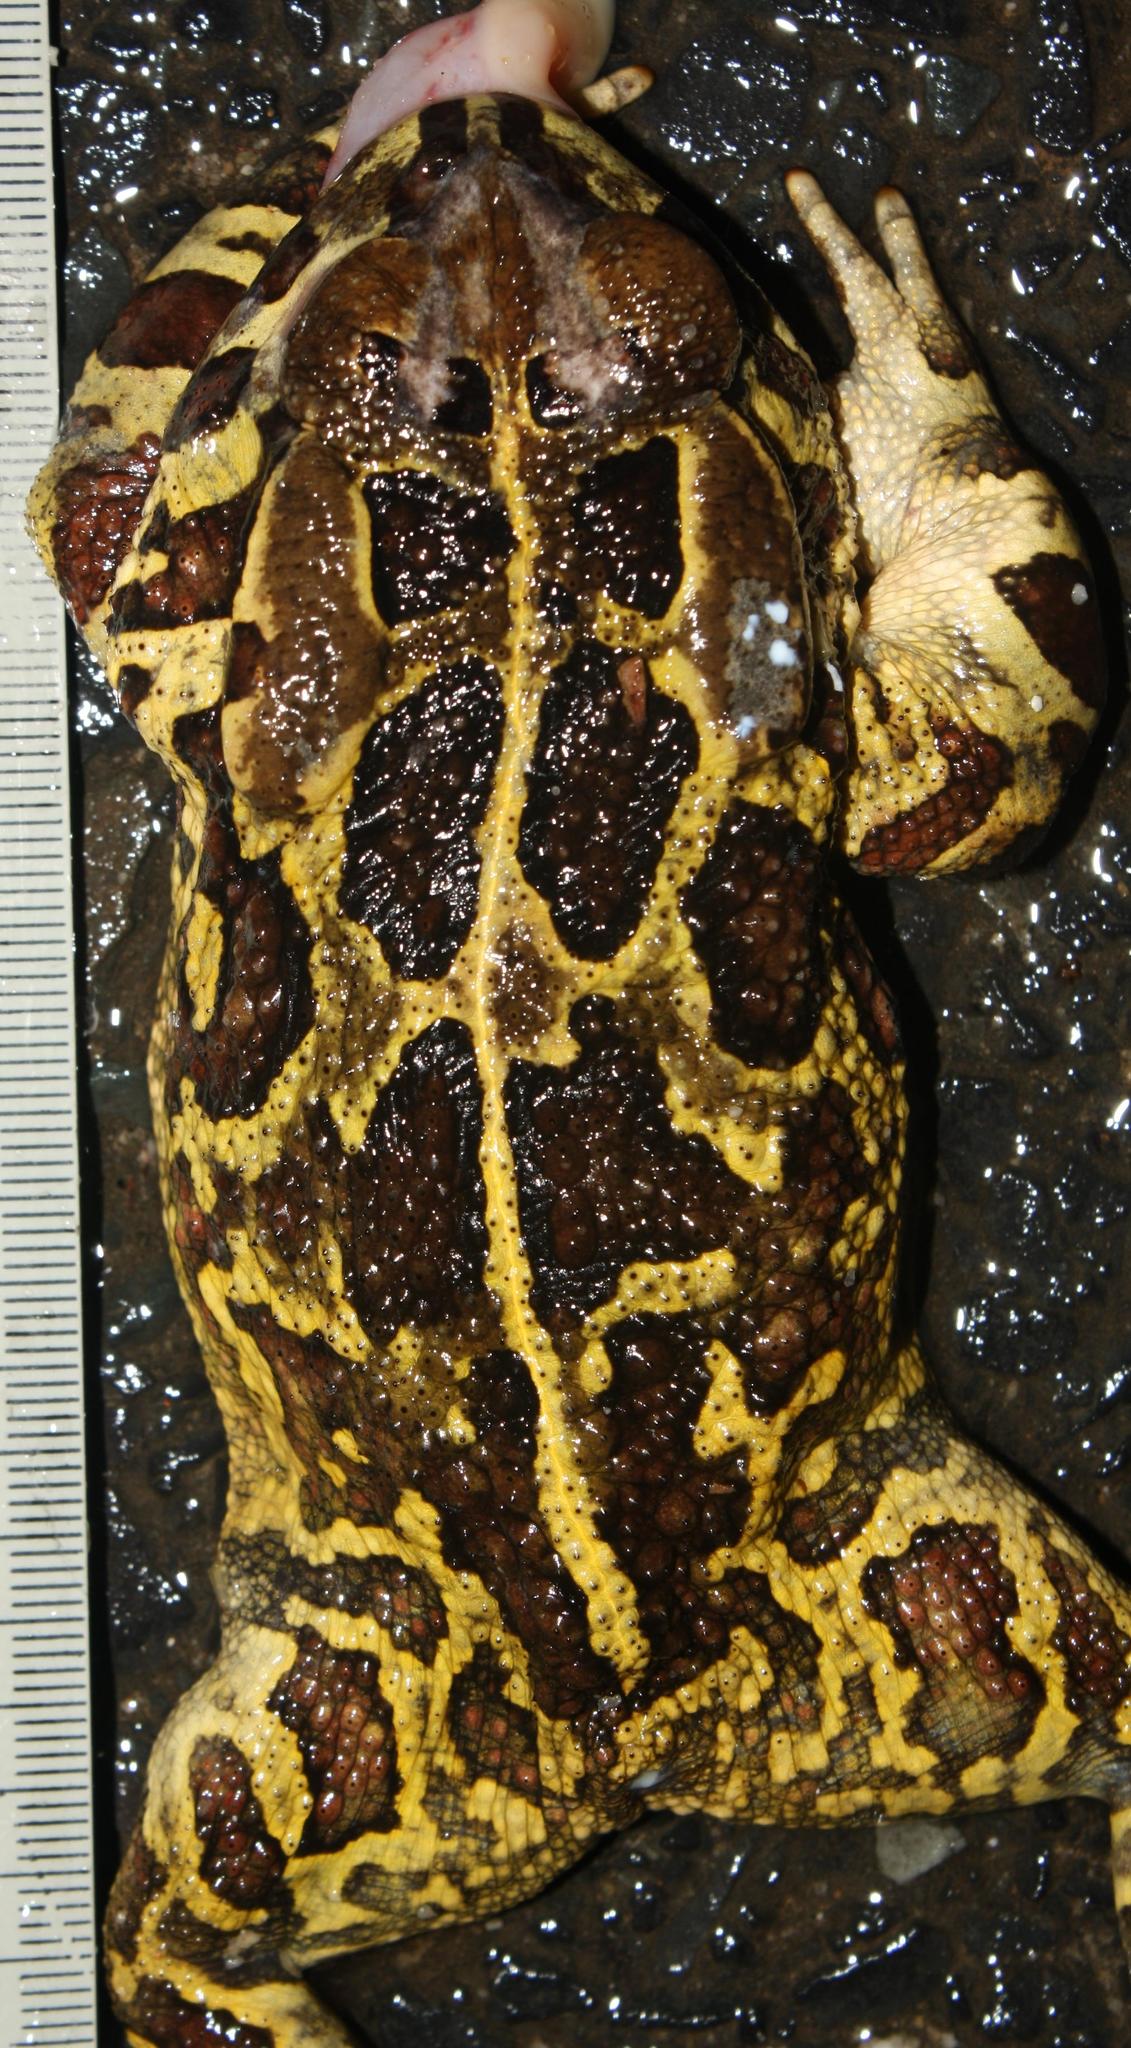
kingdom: Animalia
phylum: Chordata
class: Amphibia
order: Anura
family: Bufonidae
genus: Sclerophrys
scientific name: Sclerophrys pantherina
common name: Panther toad
